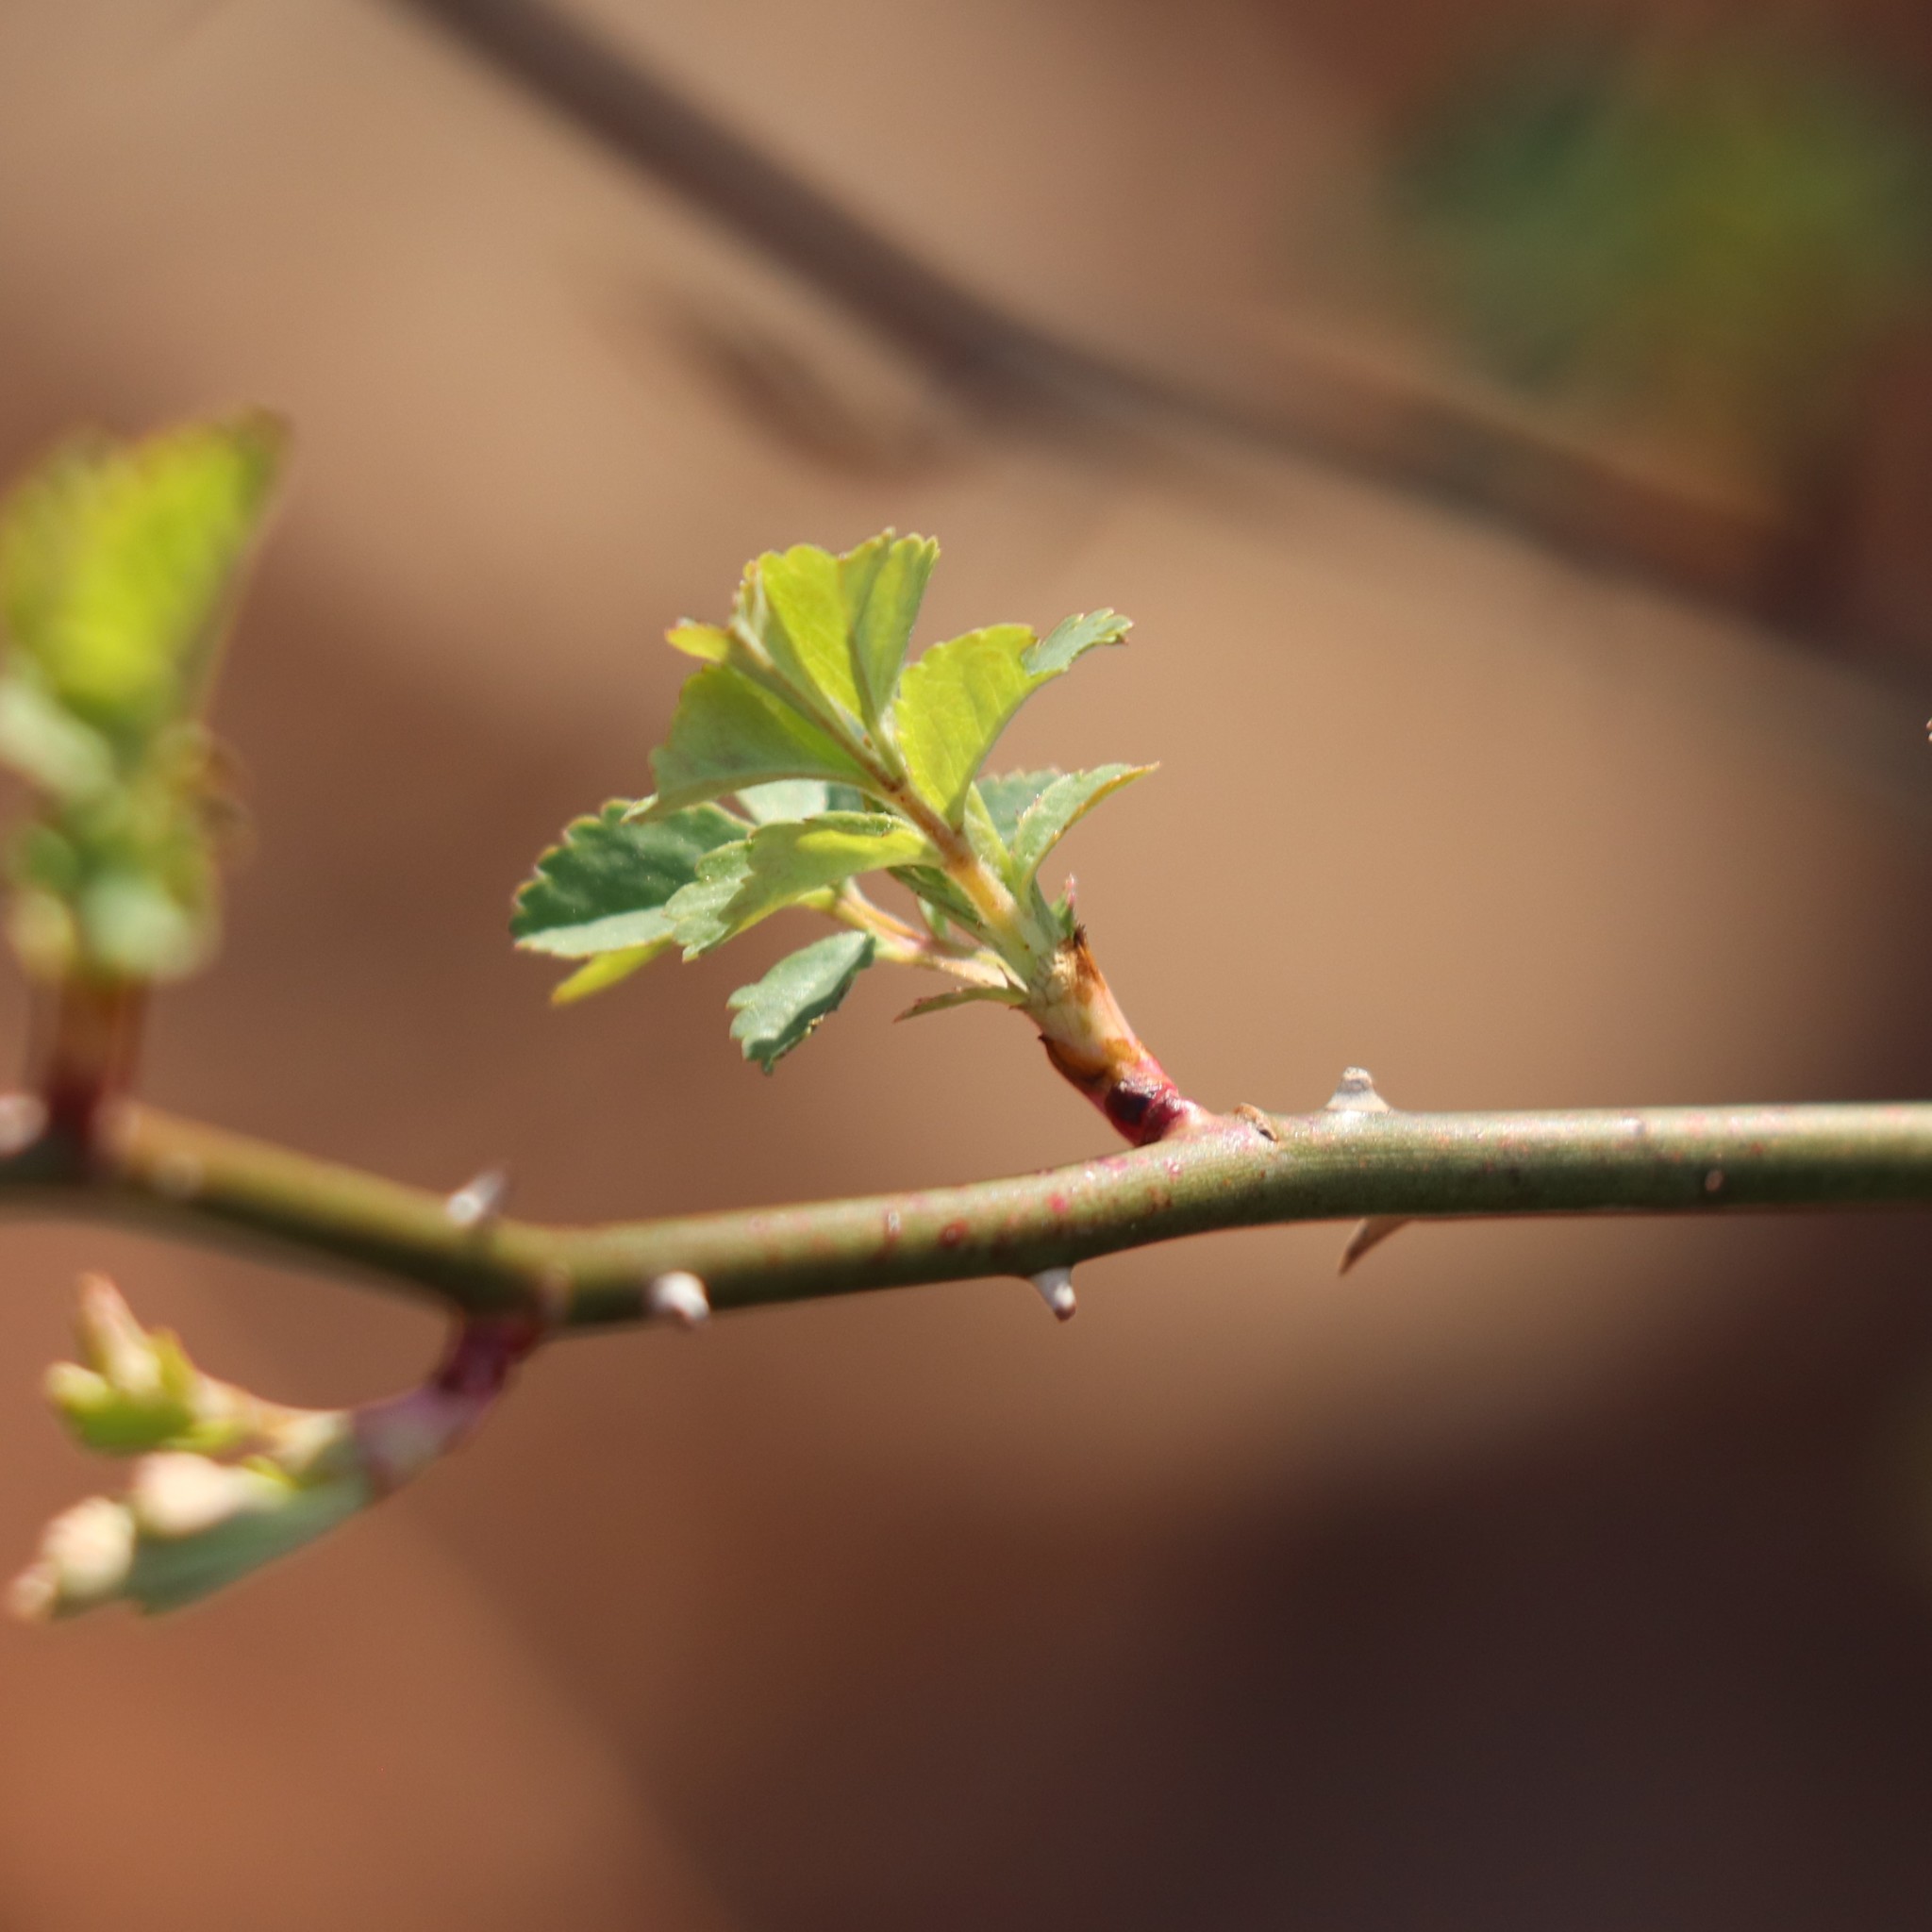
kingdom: Plantae
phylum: Tracheophyta
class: Magnoliopsida
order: Rosales
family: Rosaceae
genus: Rosa
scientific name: Rosa multiflora
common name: Multiflora rose
